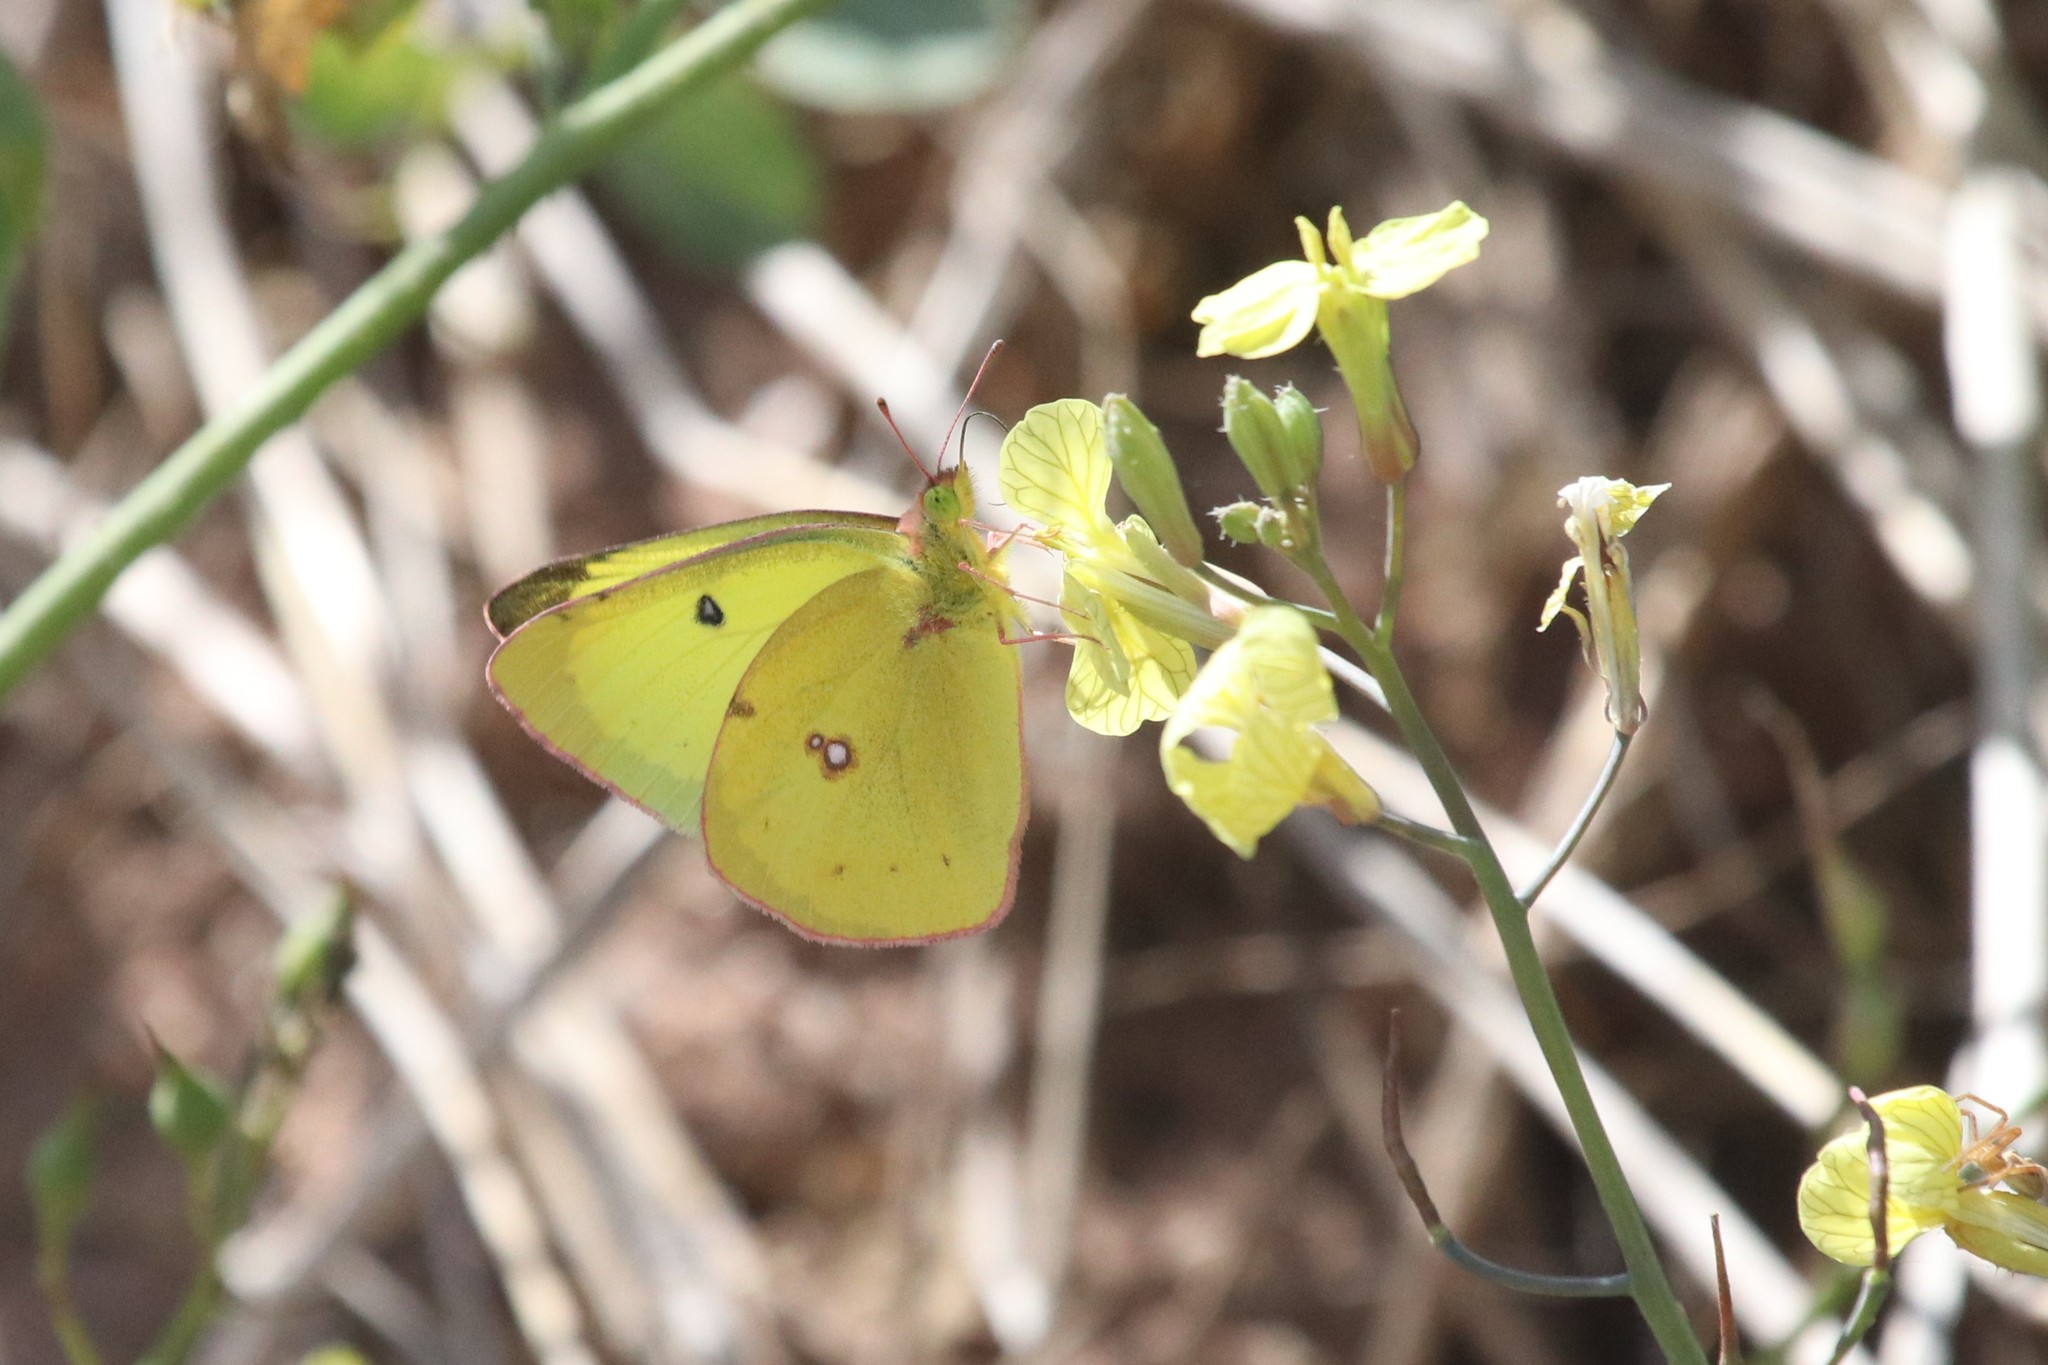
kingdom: Animalia
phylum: Arthropoda
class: Insecta
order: Lepidoptera
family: Pieridae
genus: Colias
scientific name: Colias philodice
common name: Clouded sulphur
